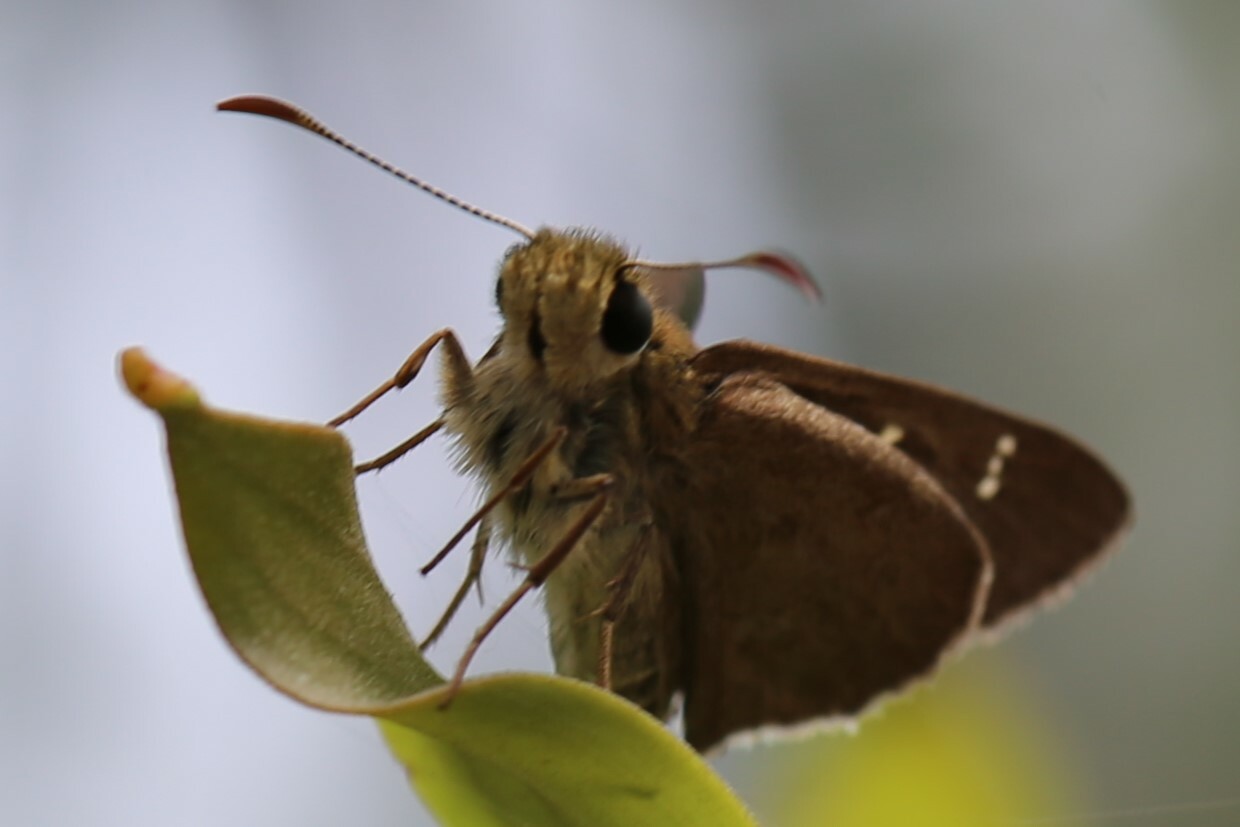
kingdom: Animalia
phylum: Arthropoda
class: Insecta
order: Lepidoptera
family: Hesperiidae
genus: Toxidia
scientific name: Toxidia
